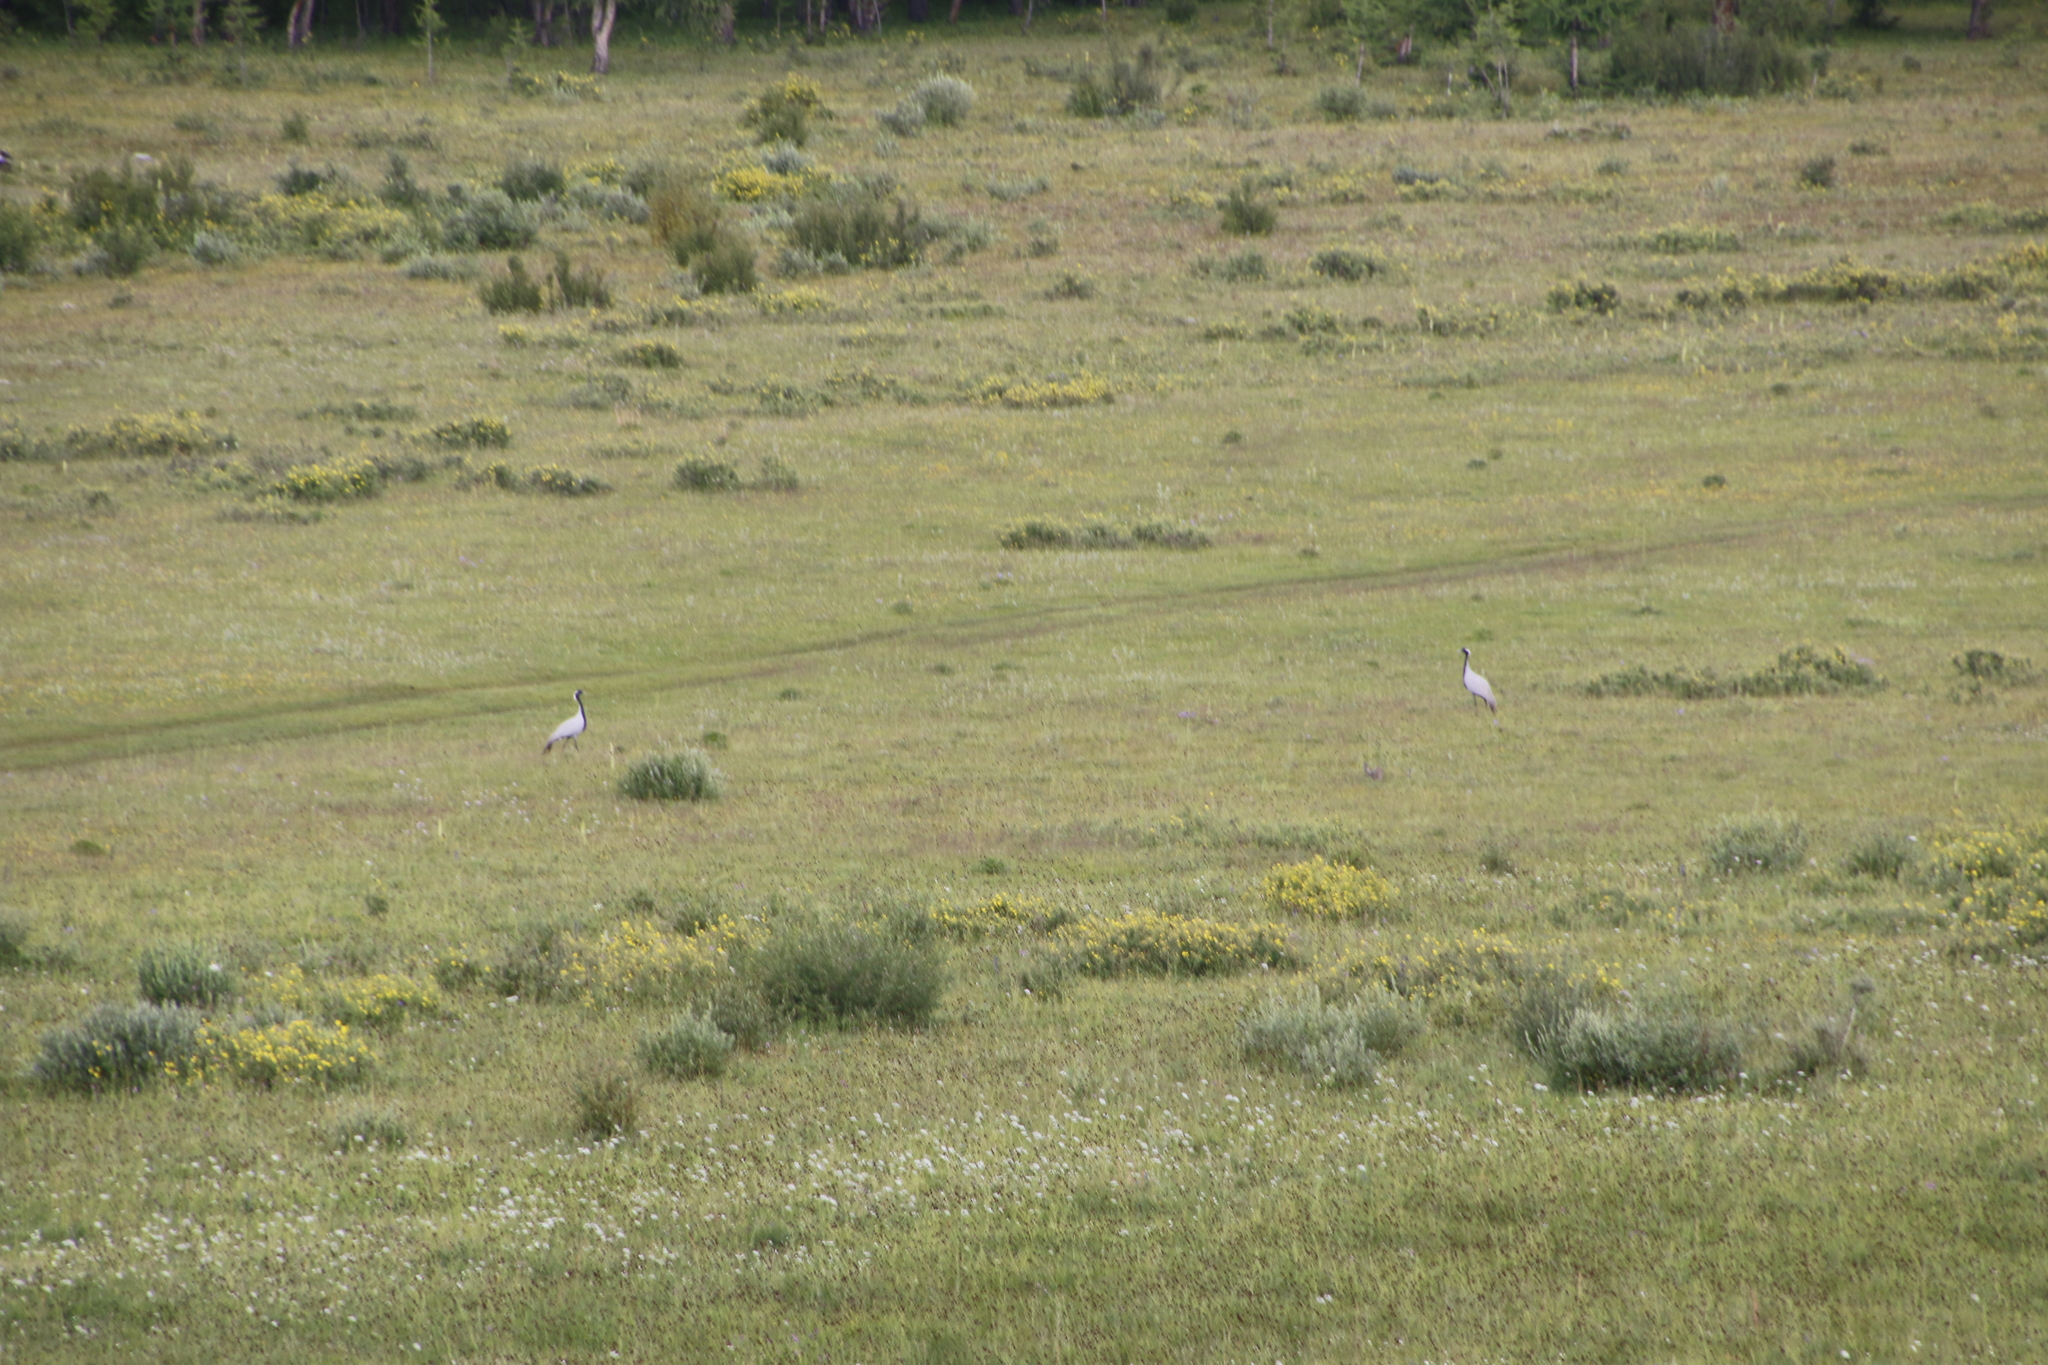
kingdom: Animalia
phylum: Chordata
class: Aves
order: Gruiformes
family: Gruidae
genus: Anthropoides
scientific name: Anthropoides virgo
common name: Demoiselle crane
